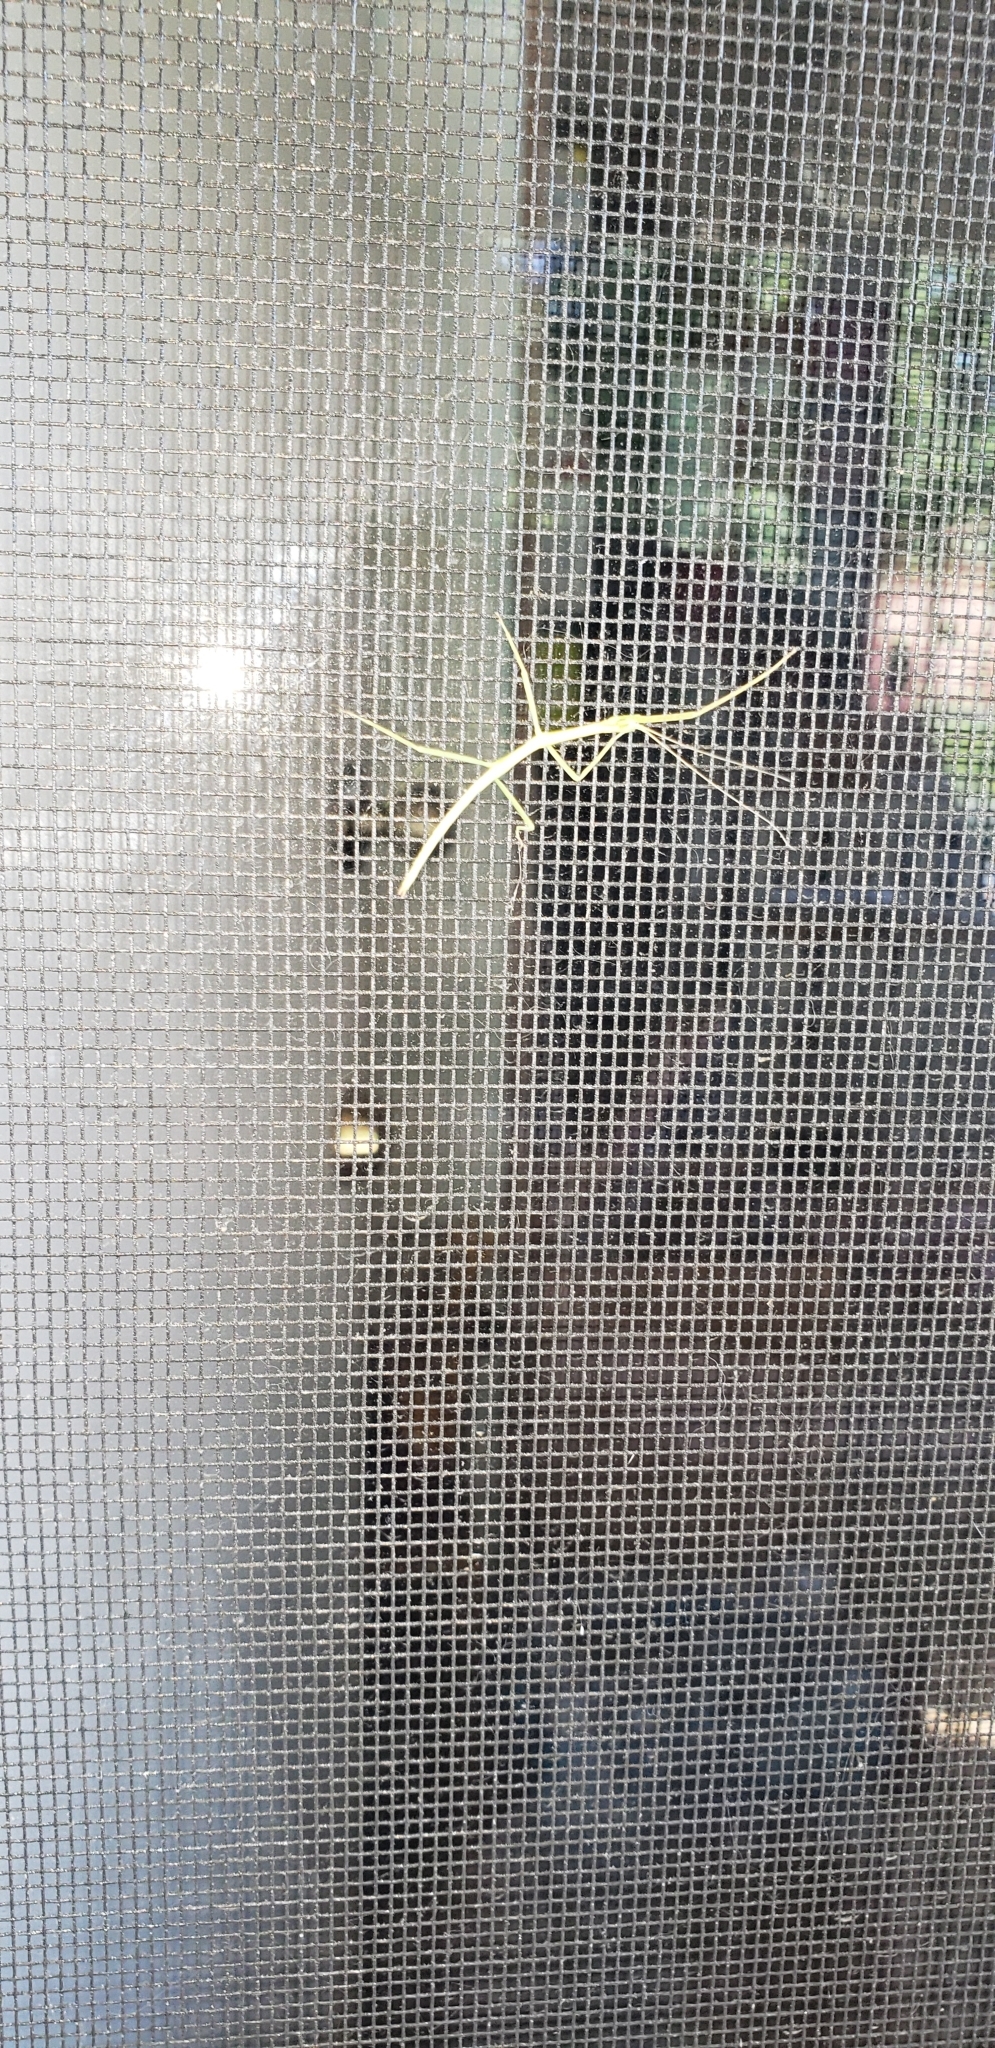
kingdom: Animalia
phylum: Arthropoda
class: Insecta
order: Phasmida
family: Diapheromeridae
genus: Diapheromera
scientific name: Diapheromera femorata
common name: Common american walkingstick
